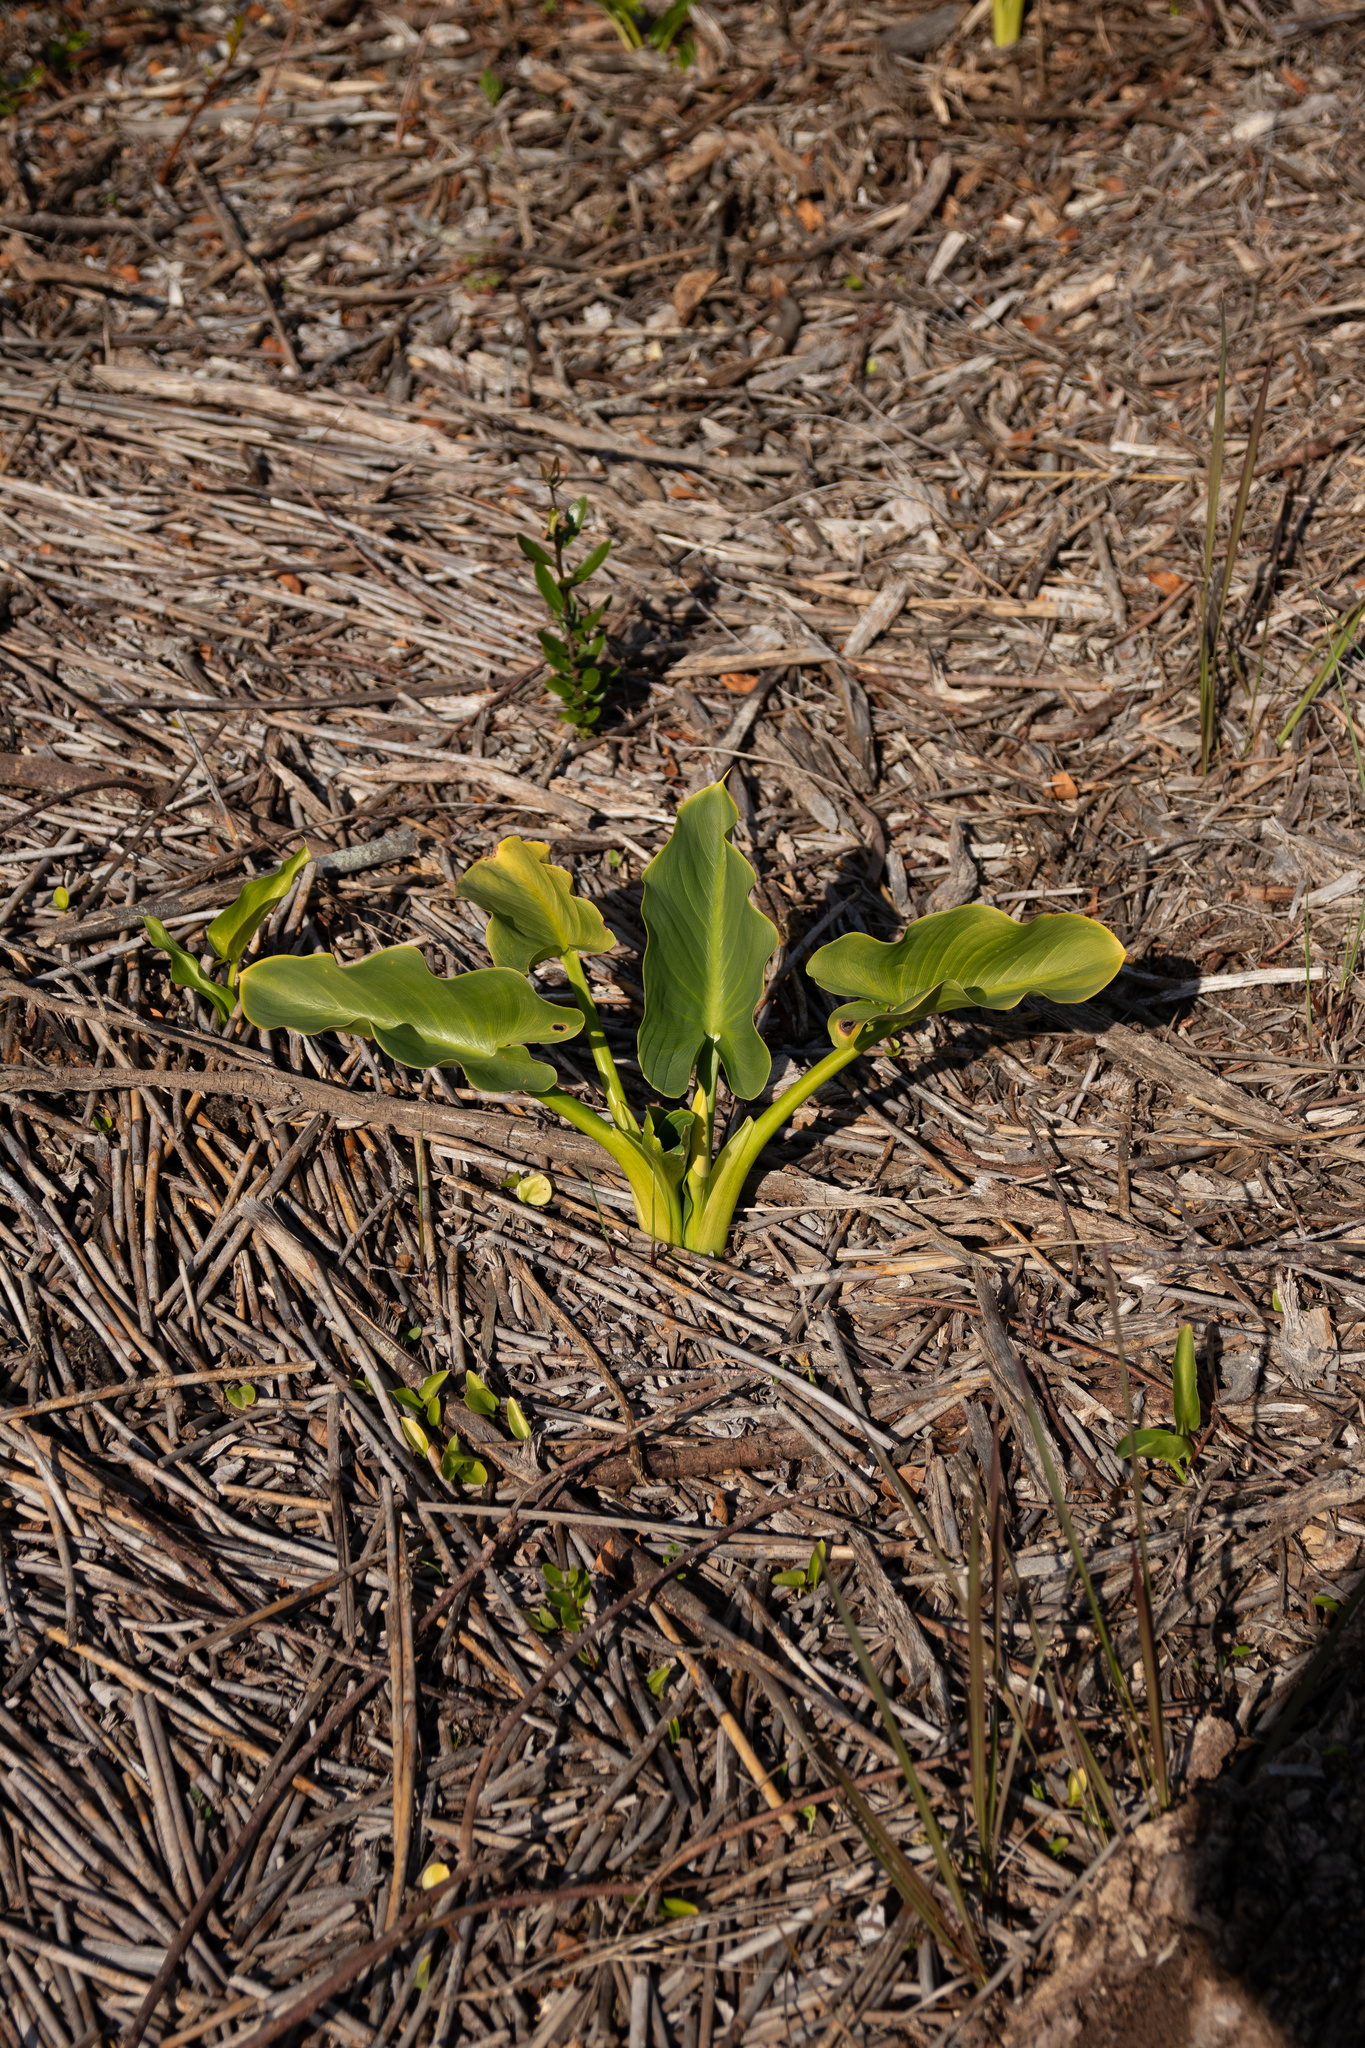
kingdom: Plantae
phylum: Tracheophyta
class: Liliopsida
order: Alismatales
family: Araceae
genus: Zantedeschia
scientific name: Zantedeschia aethiopica
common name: Altar-lily
